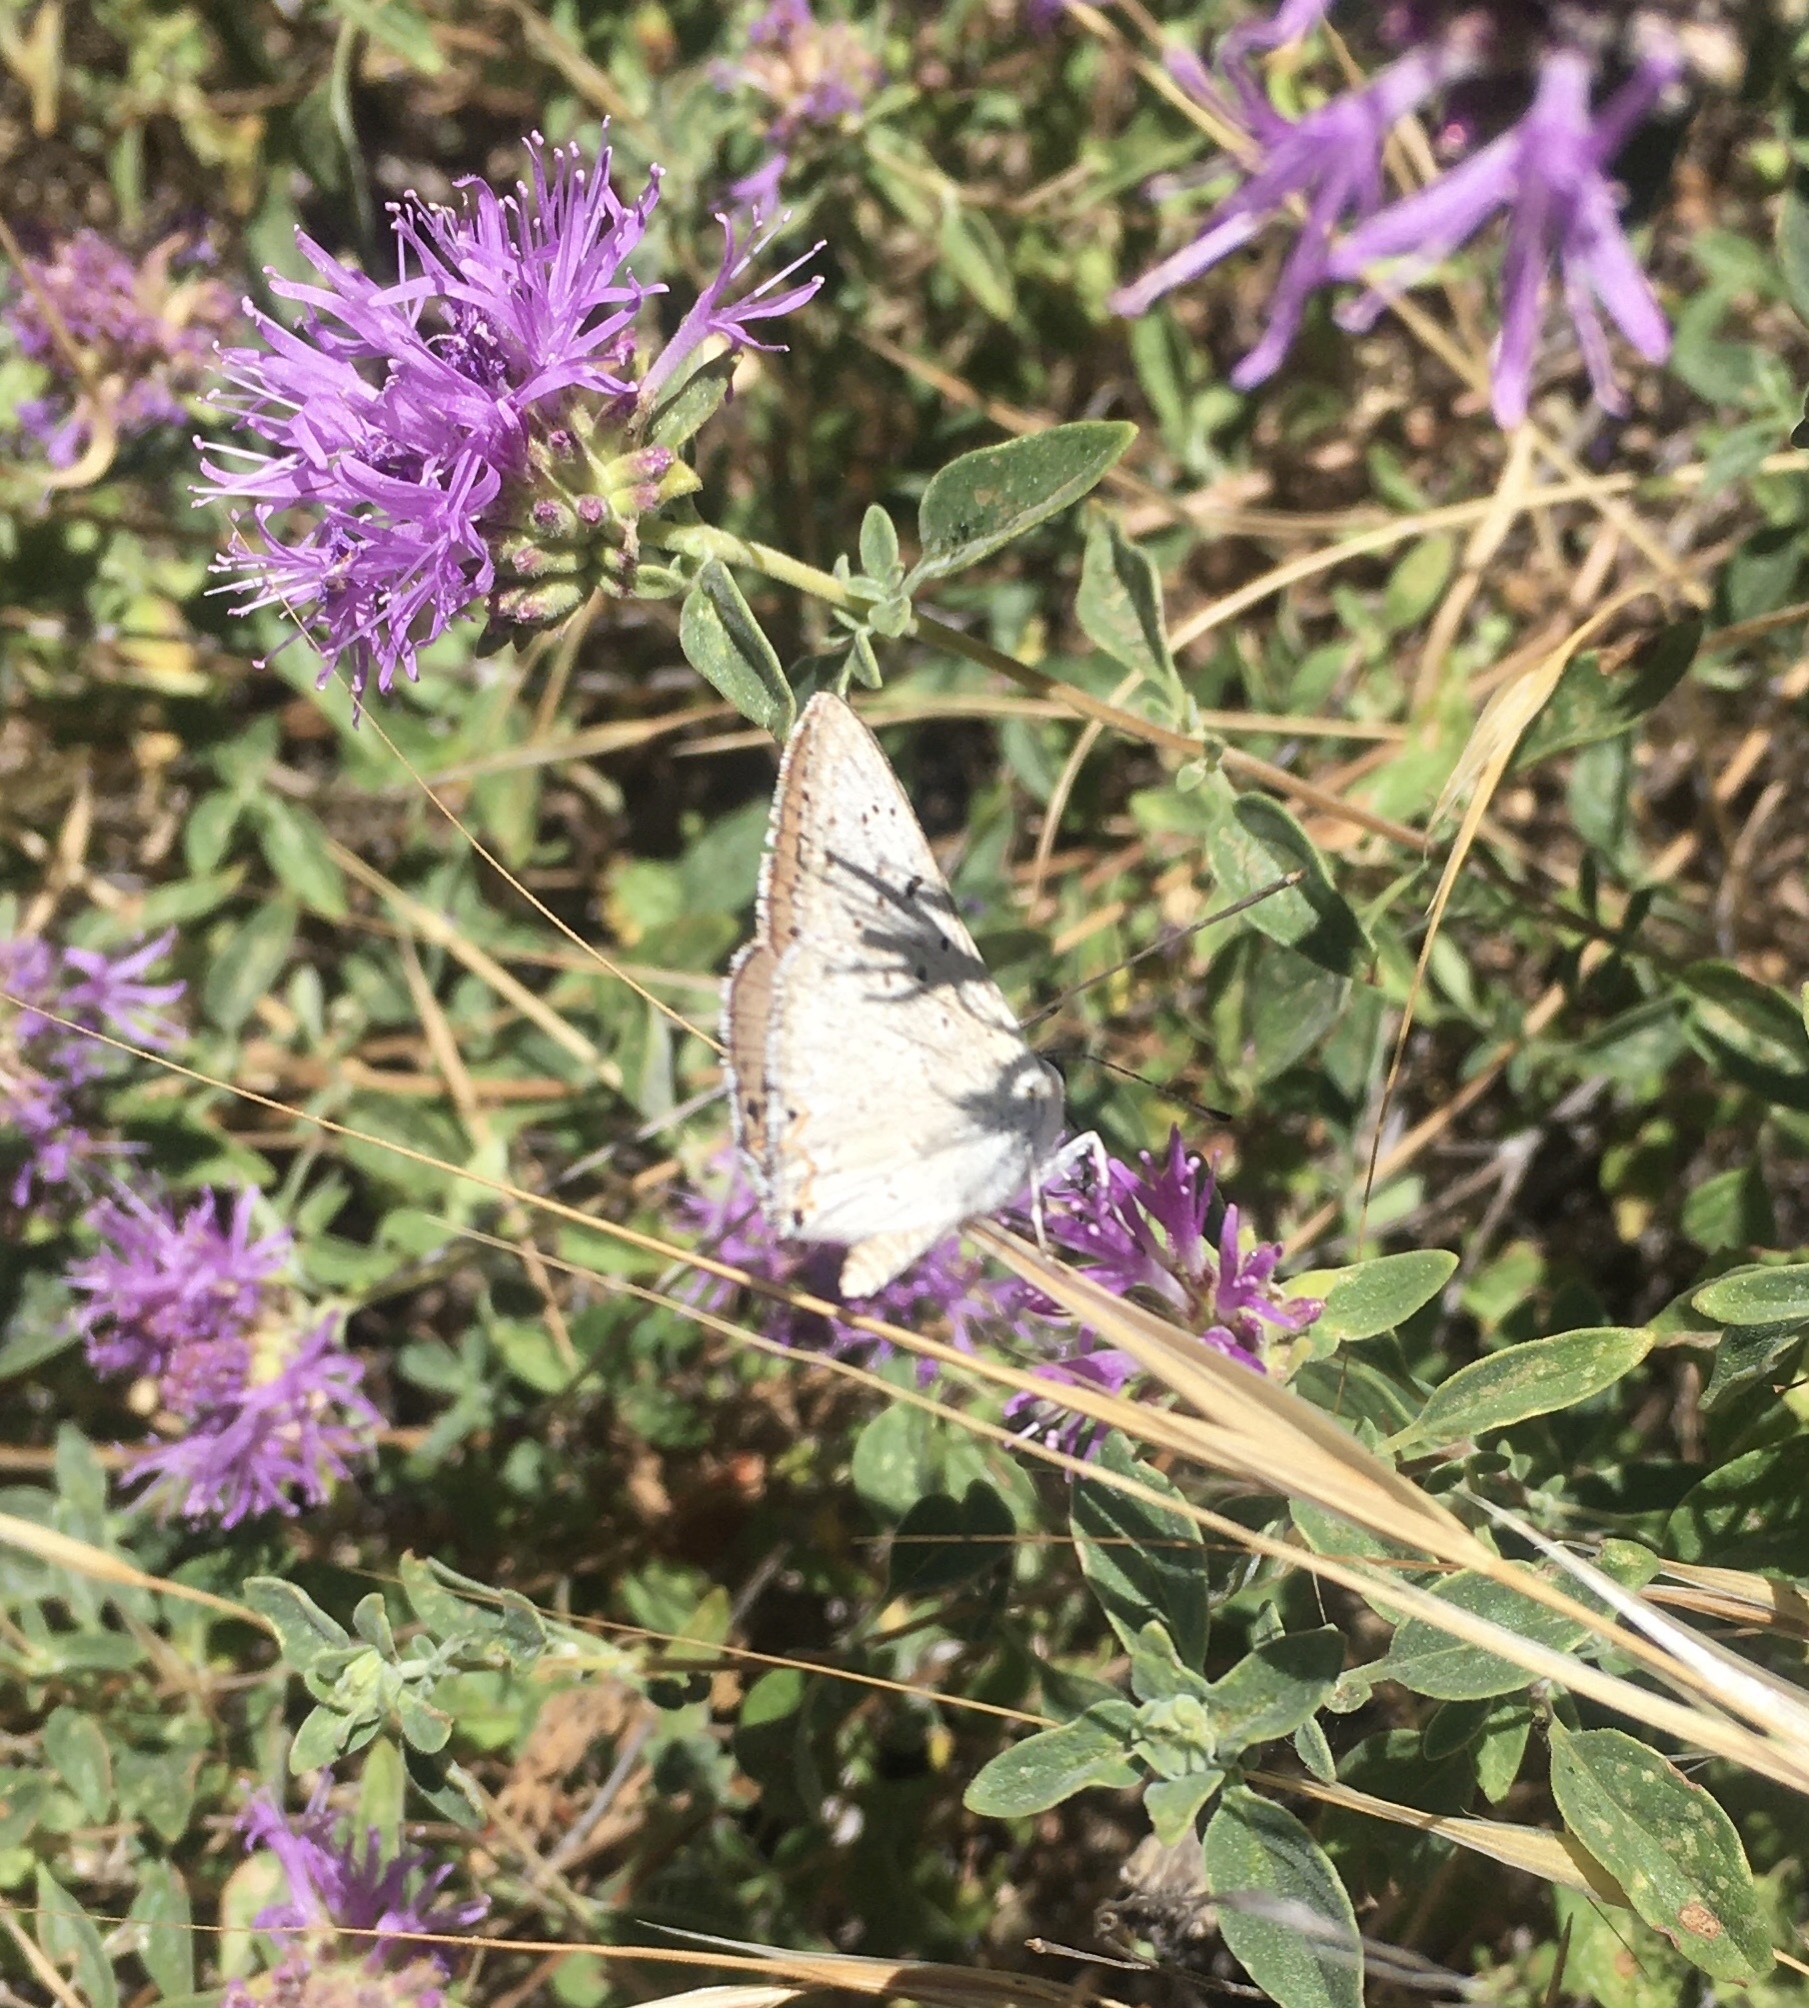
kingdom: Animalia
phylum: Arthropoda
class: Insecta
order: Lepidoptera
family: Lycaenidae
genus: Tharsalea
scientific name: Tharsalea xanthoides
